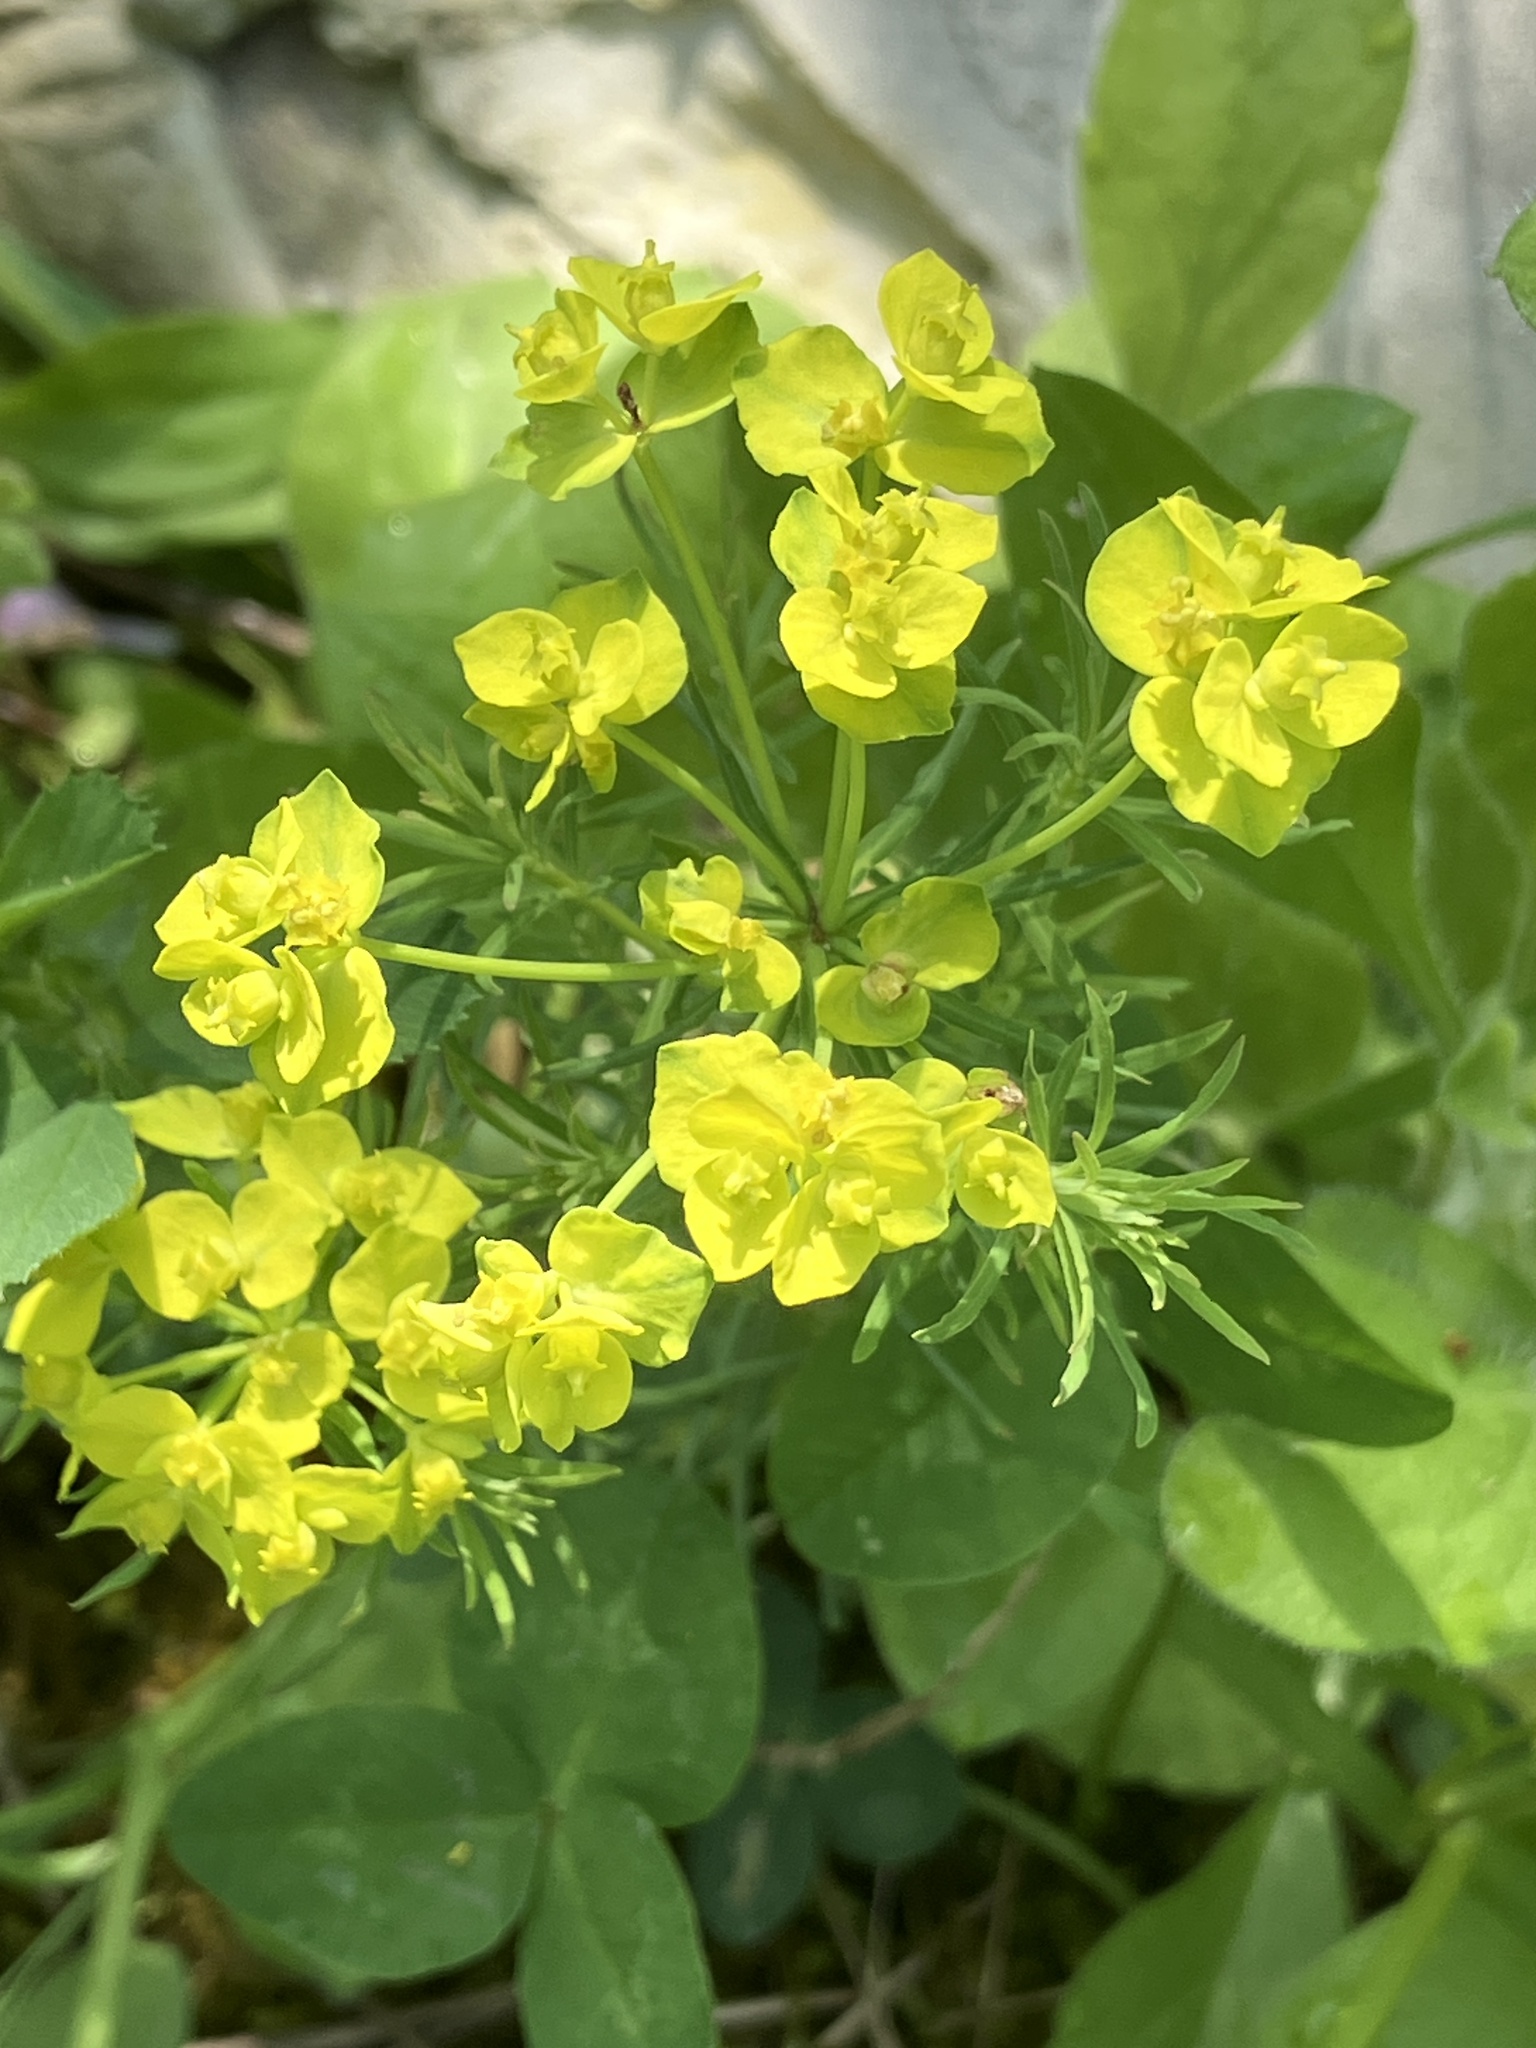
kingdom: Plantae
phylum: Tracheophyta
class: Magnoliopsida
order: Malpighiales
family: Euphorbiaceae
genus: Euphorbia
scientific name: Euphorbia cyparissias
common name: Cypress spurge
